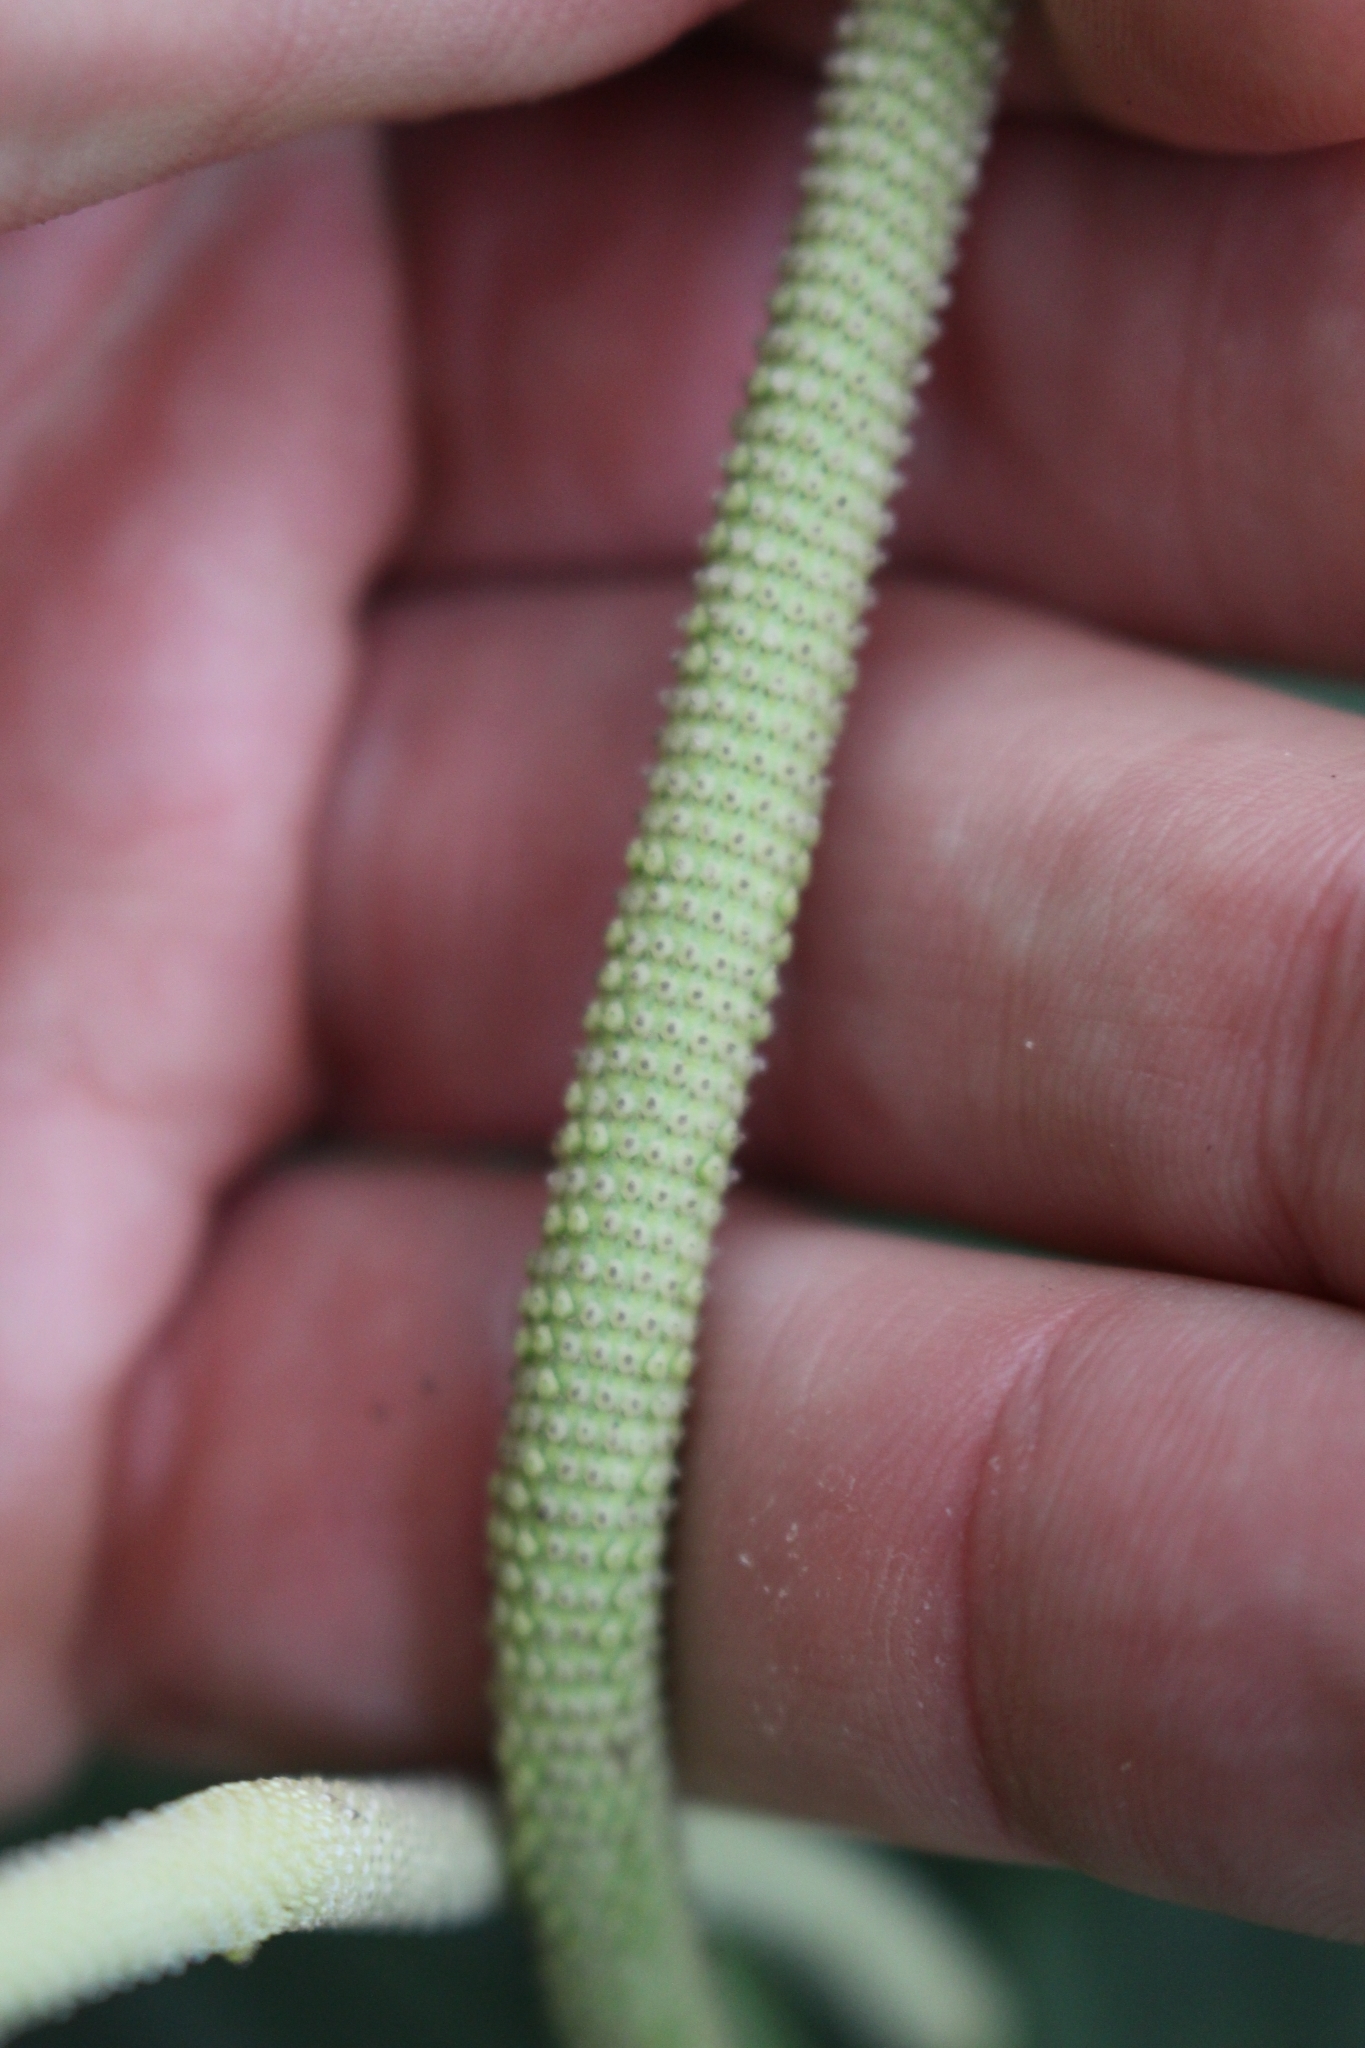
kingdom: Plantae
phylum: Tracheophyta
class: Magnoliopsida
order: Piperales
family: Piperaceae
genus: Peperomia
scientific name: Peperomia lignescens
